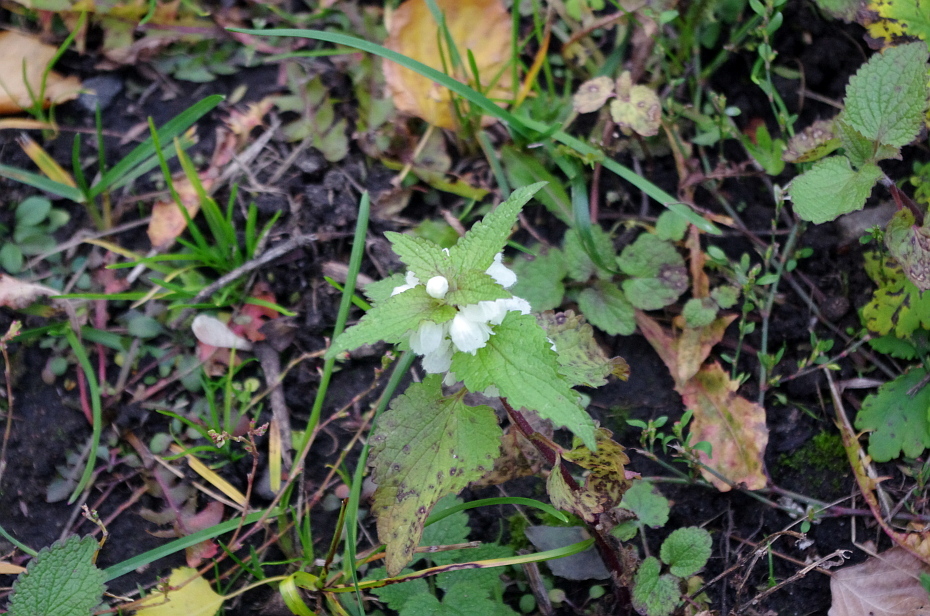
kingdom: Plantae
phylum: Tracheophyta
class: Magnoliopsida
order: Lamiales
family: Lamiaceae
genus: Lamium
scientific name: Lamium album
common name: White dead-nettle
